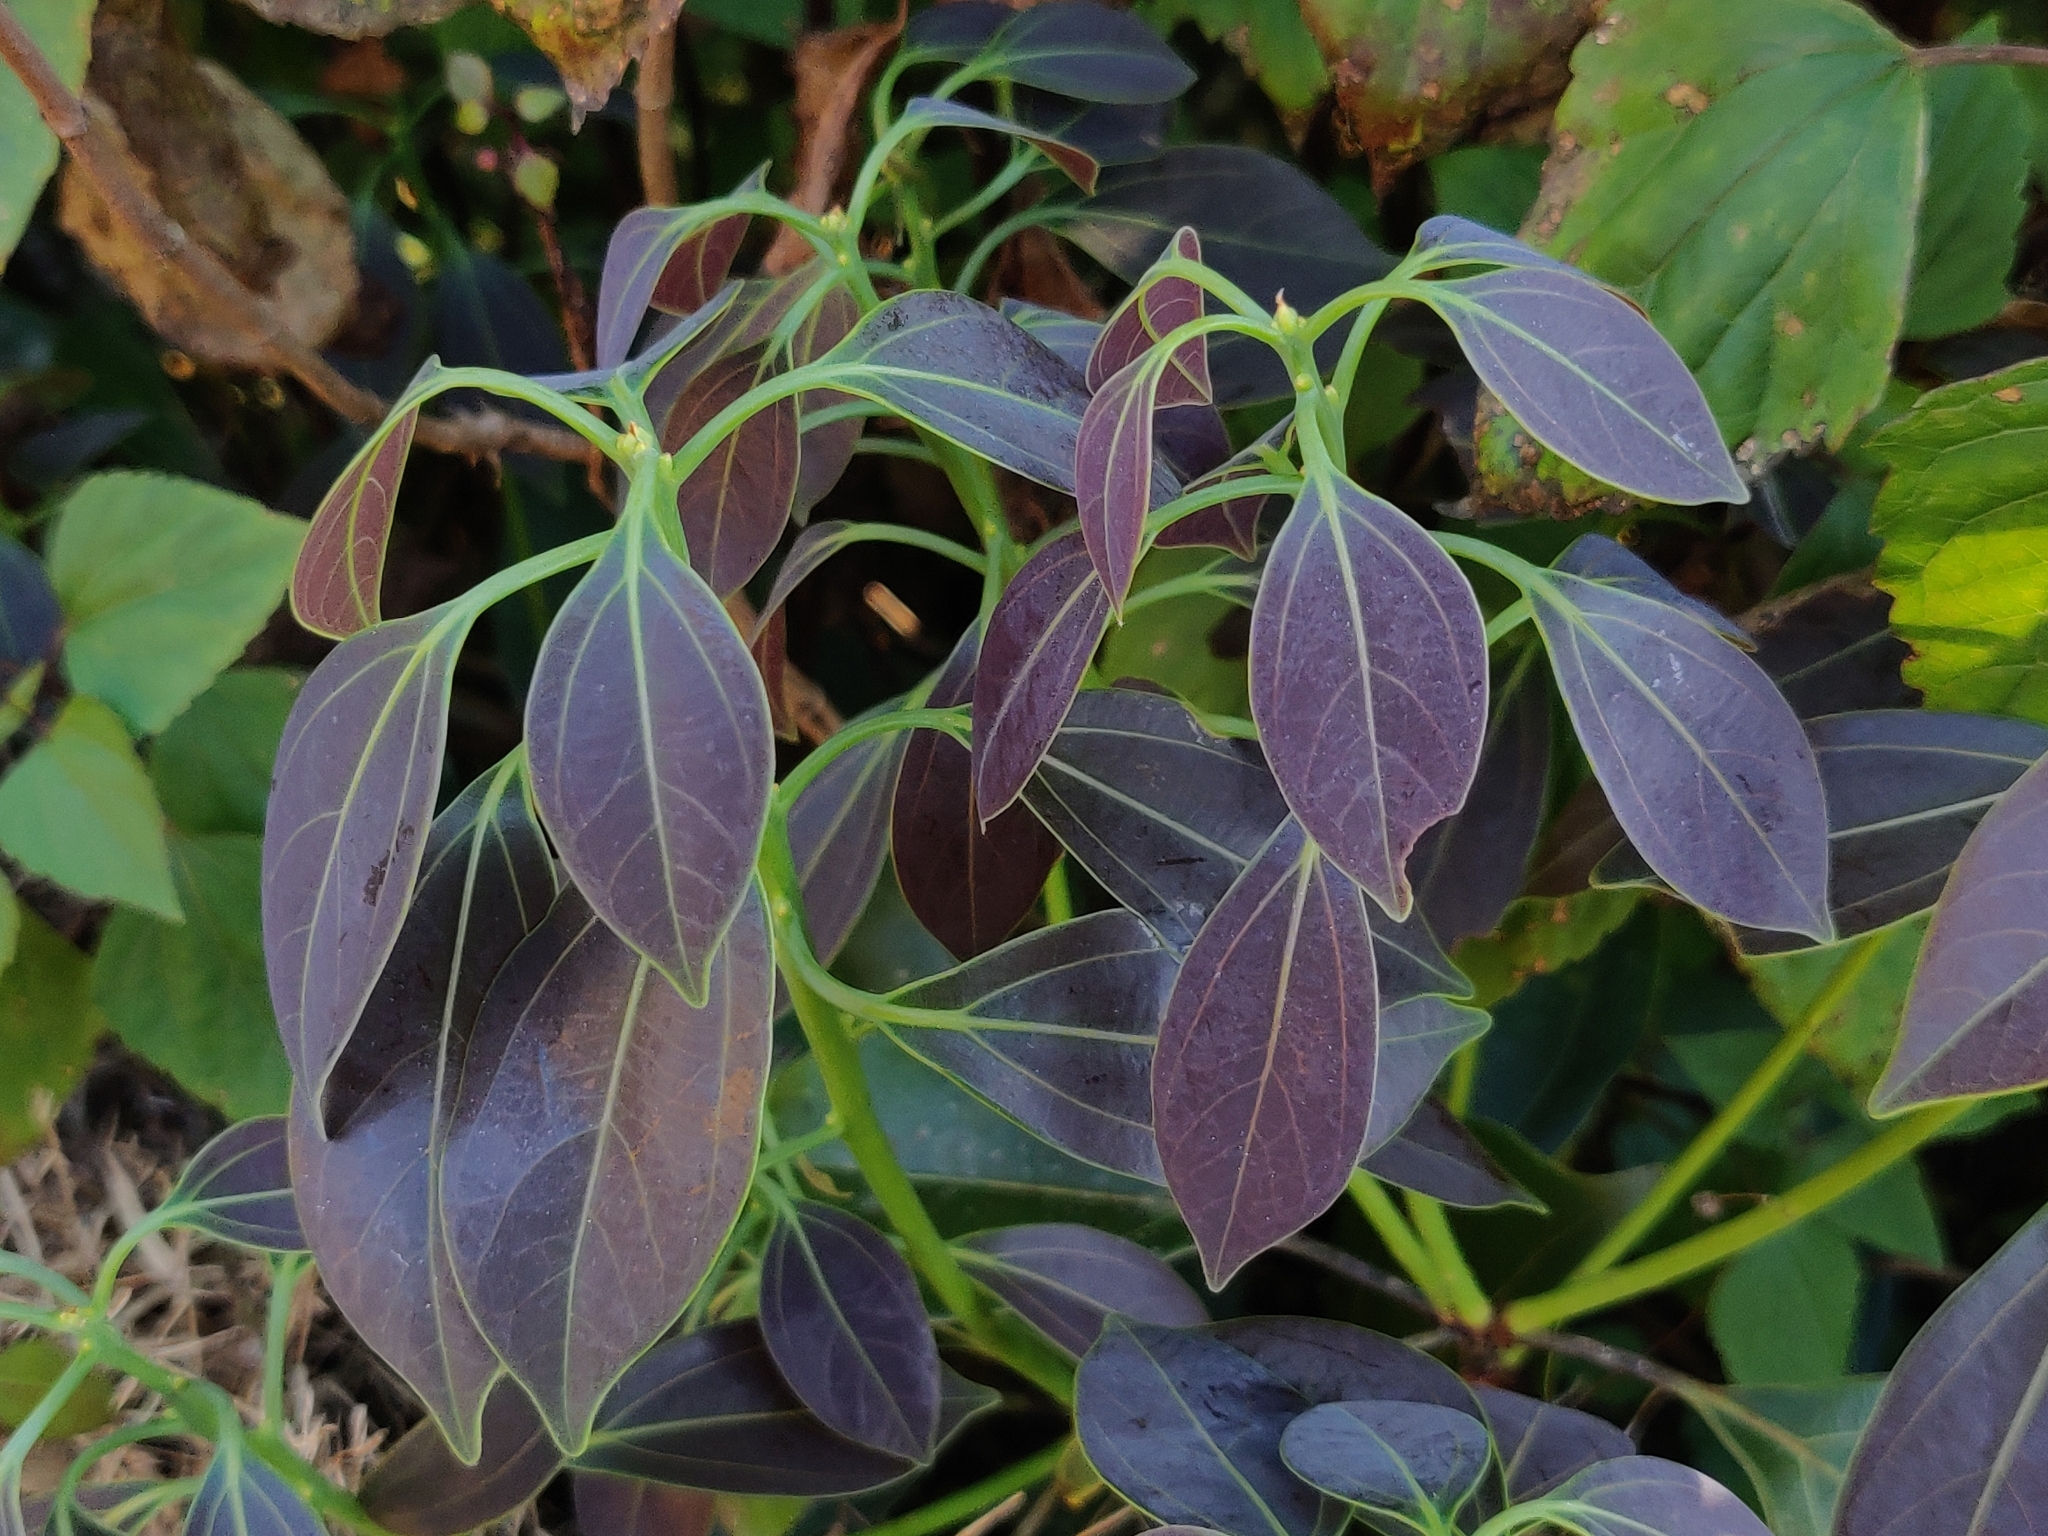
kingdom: Plantae
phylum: Tracheophyta
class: Magnoliopsida
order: Laurales
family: Lauraceae
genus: Neolitsea
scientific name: Neolitsea foliosa
